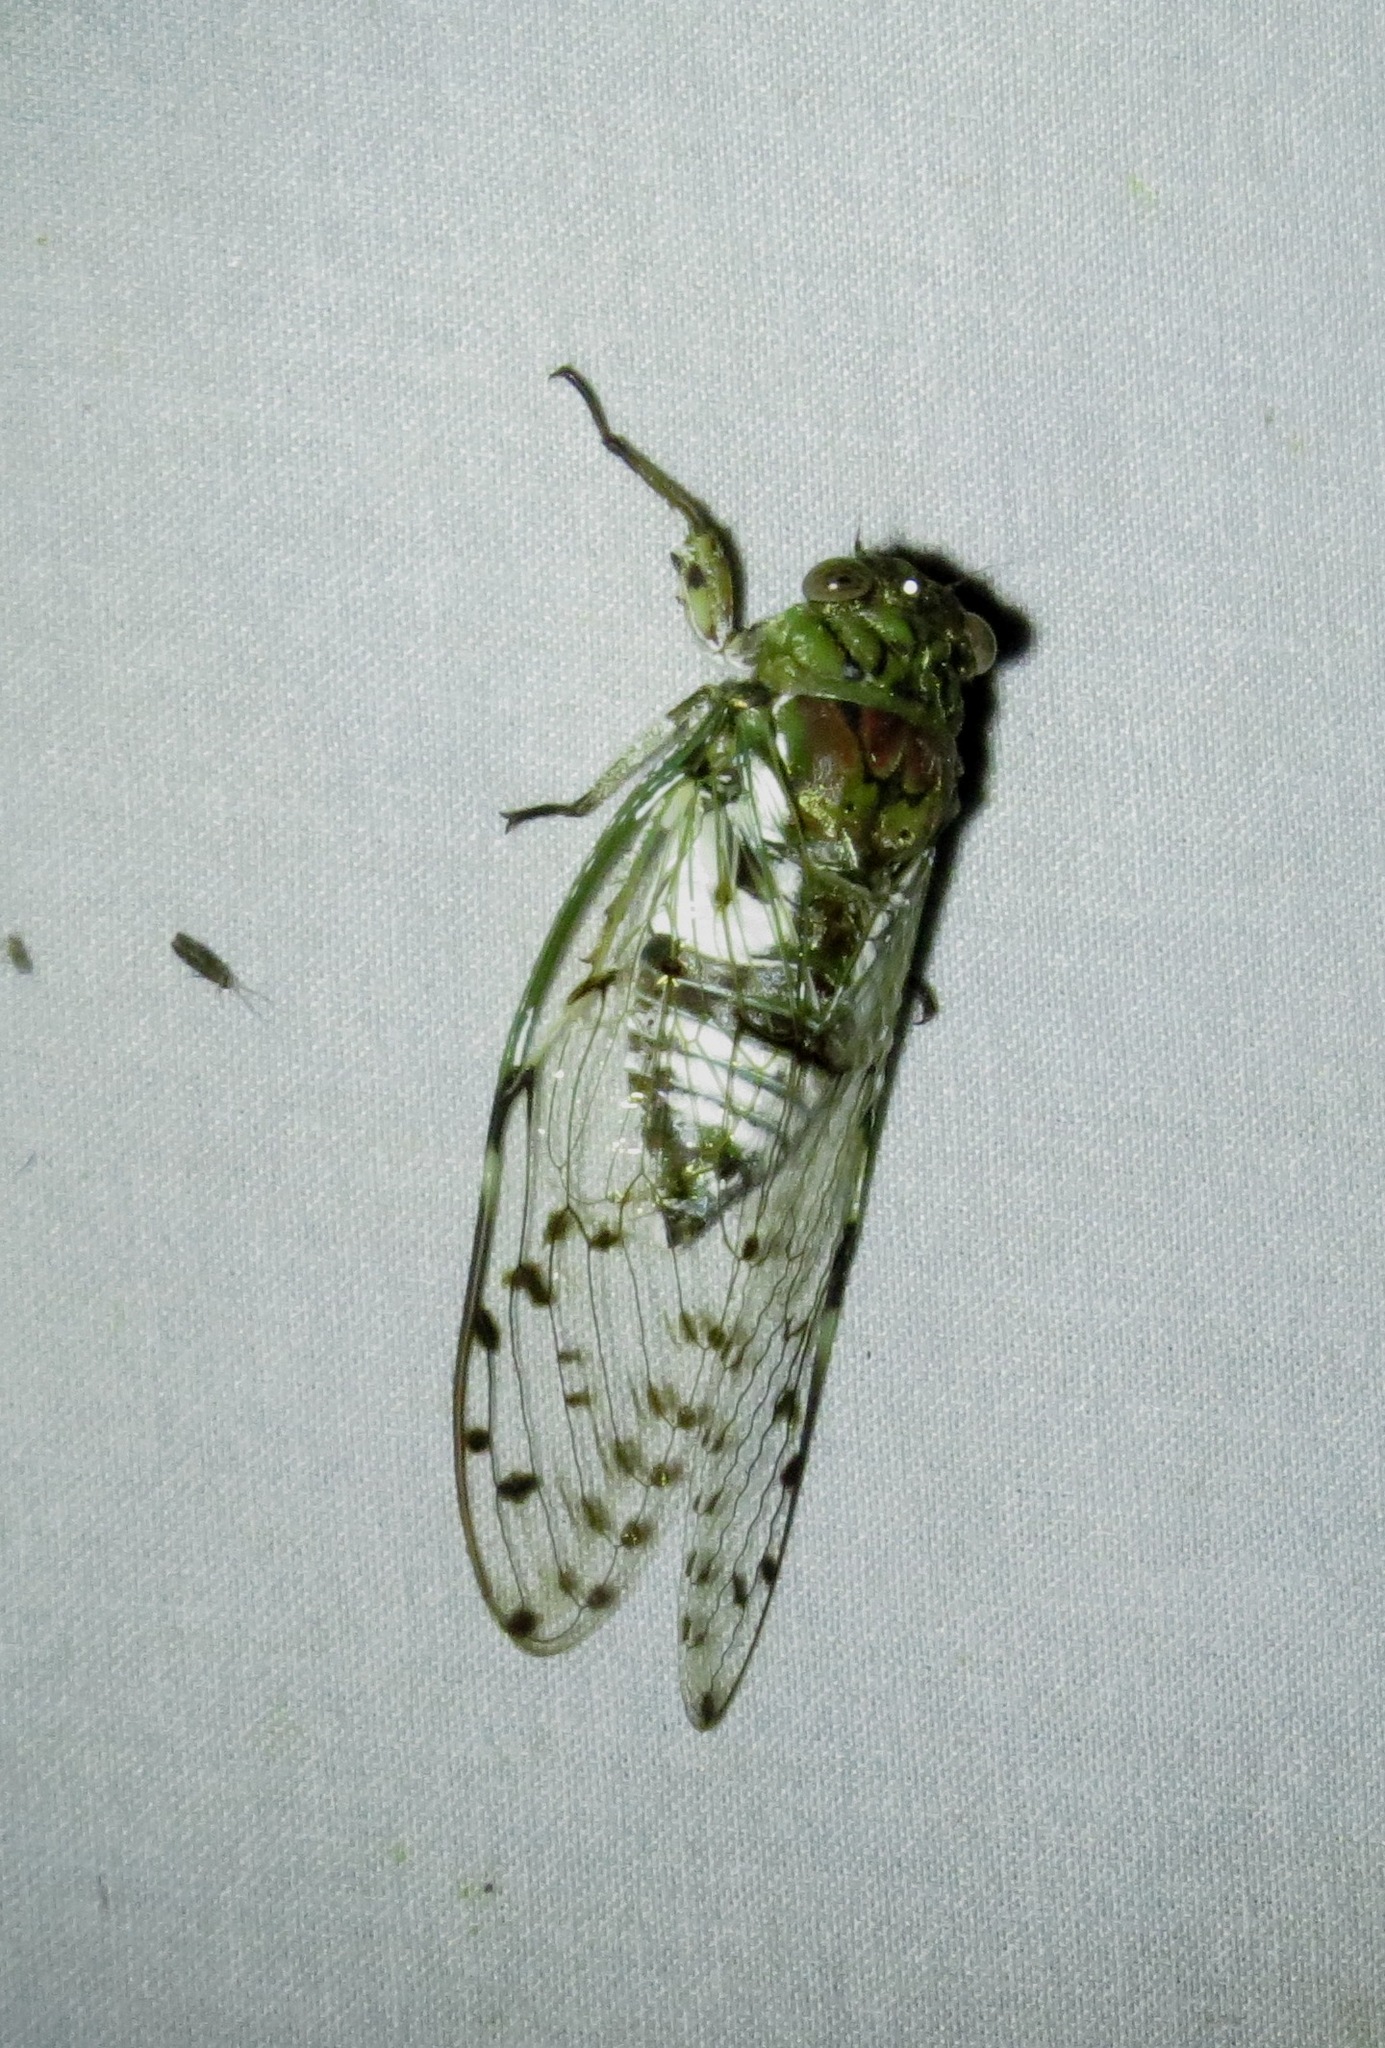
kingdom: Animalia
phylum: Arthropoda
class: Insecta
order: Hemiptera
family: Cicadidae
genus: Proarna
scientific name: Proarna sallei
